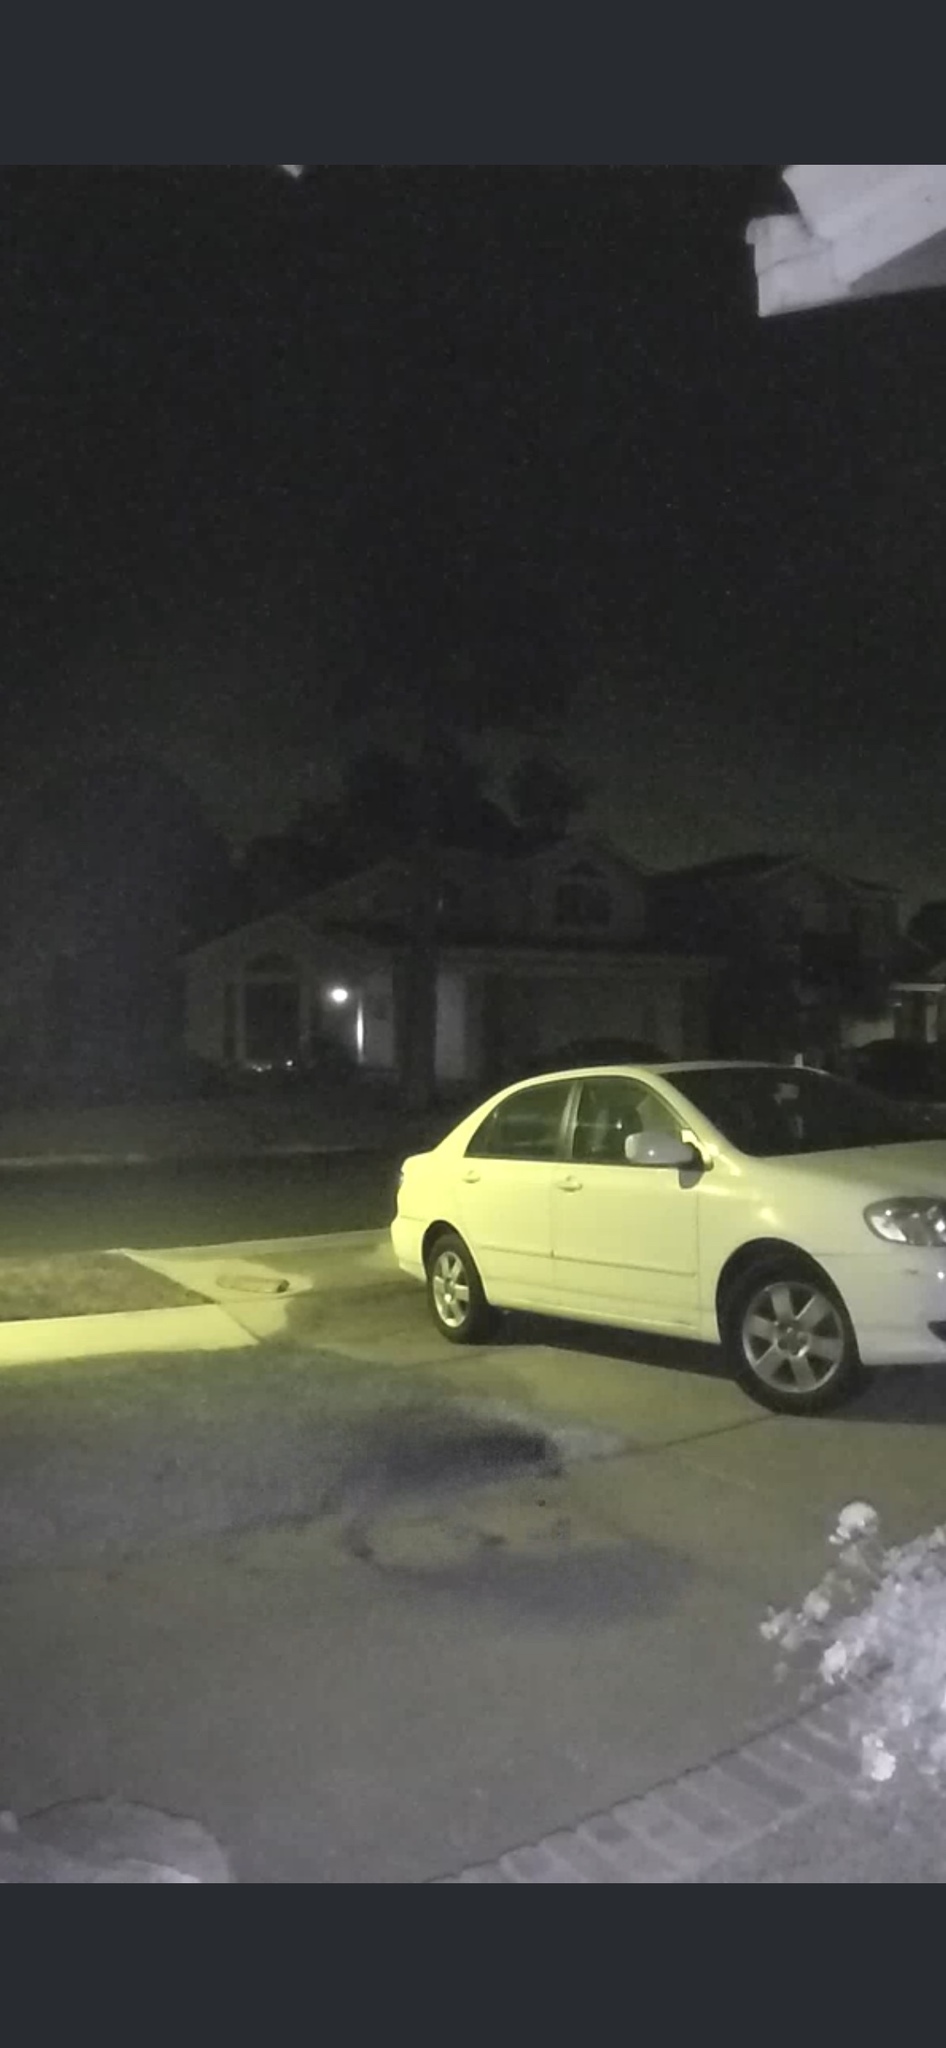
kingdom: Animalia
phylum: Chordata
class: Mammalia
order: Carnivora
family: Procyonidae
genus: Procyon
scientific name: Procyon lotor
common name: Raccoon
